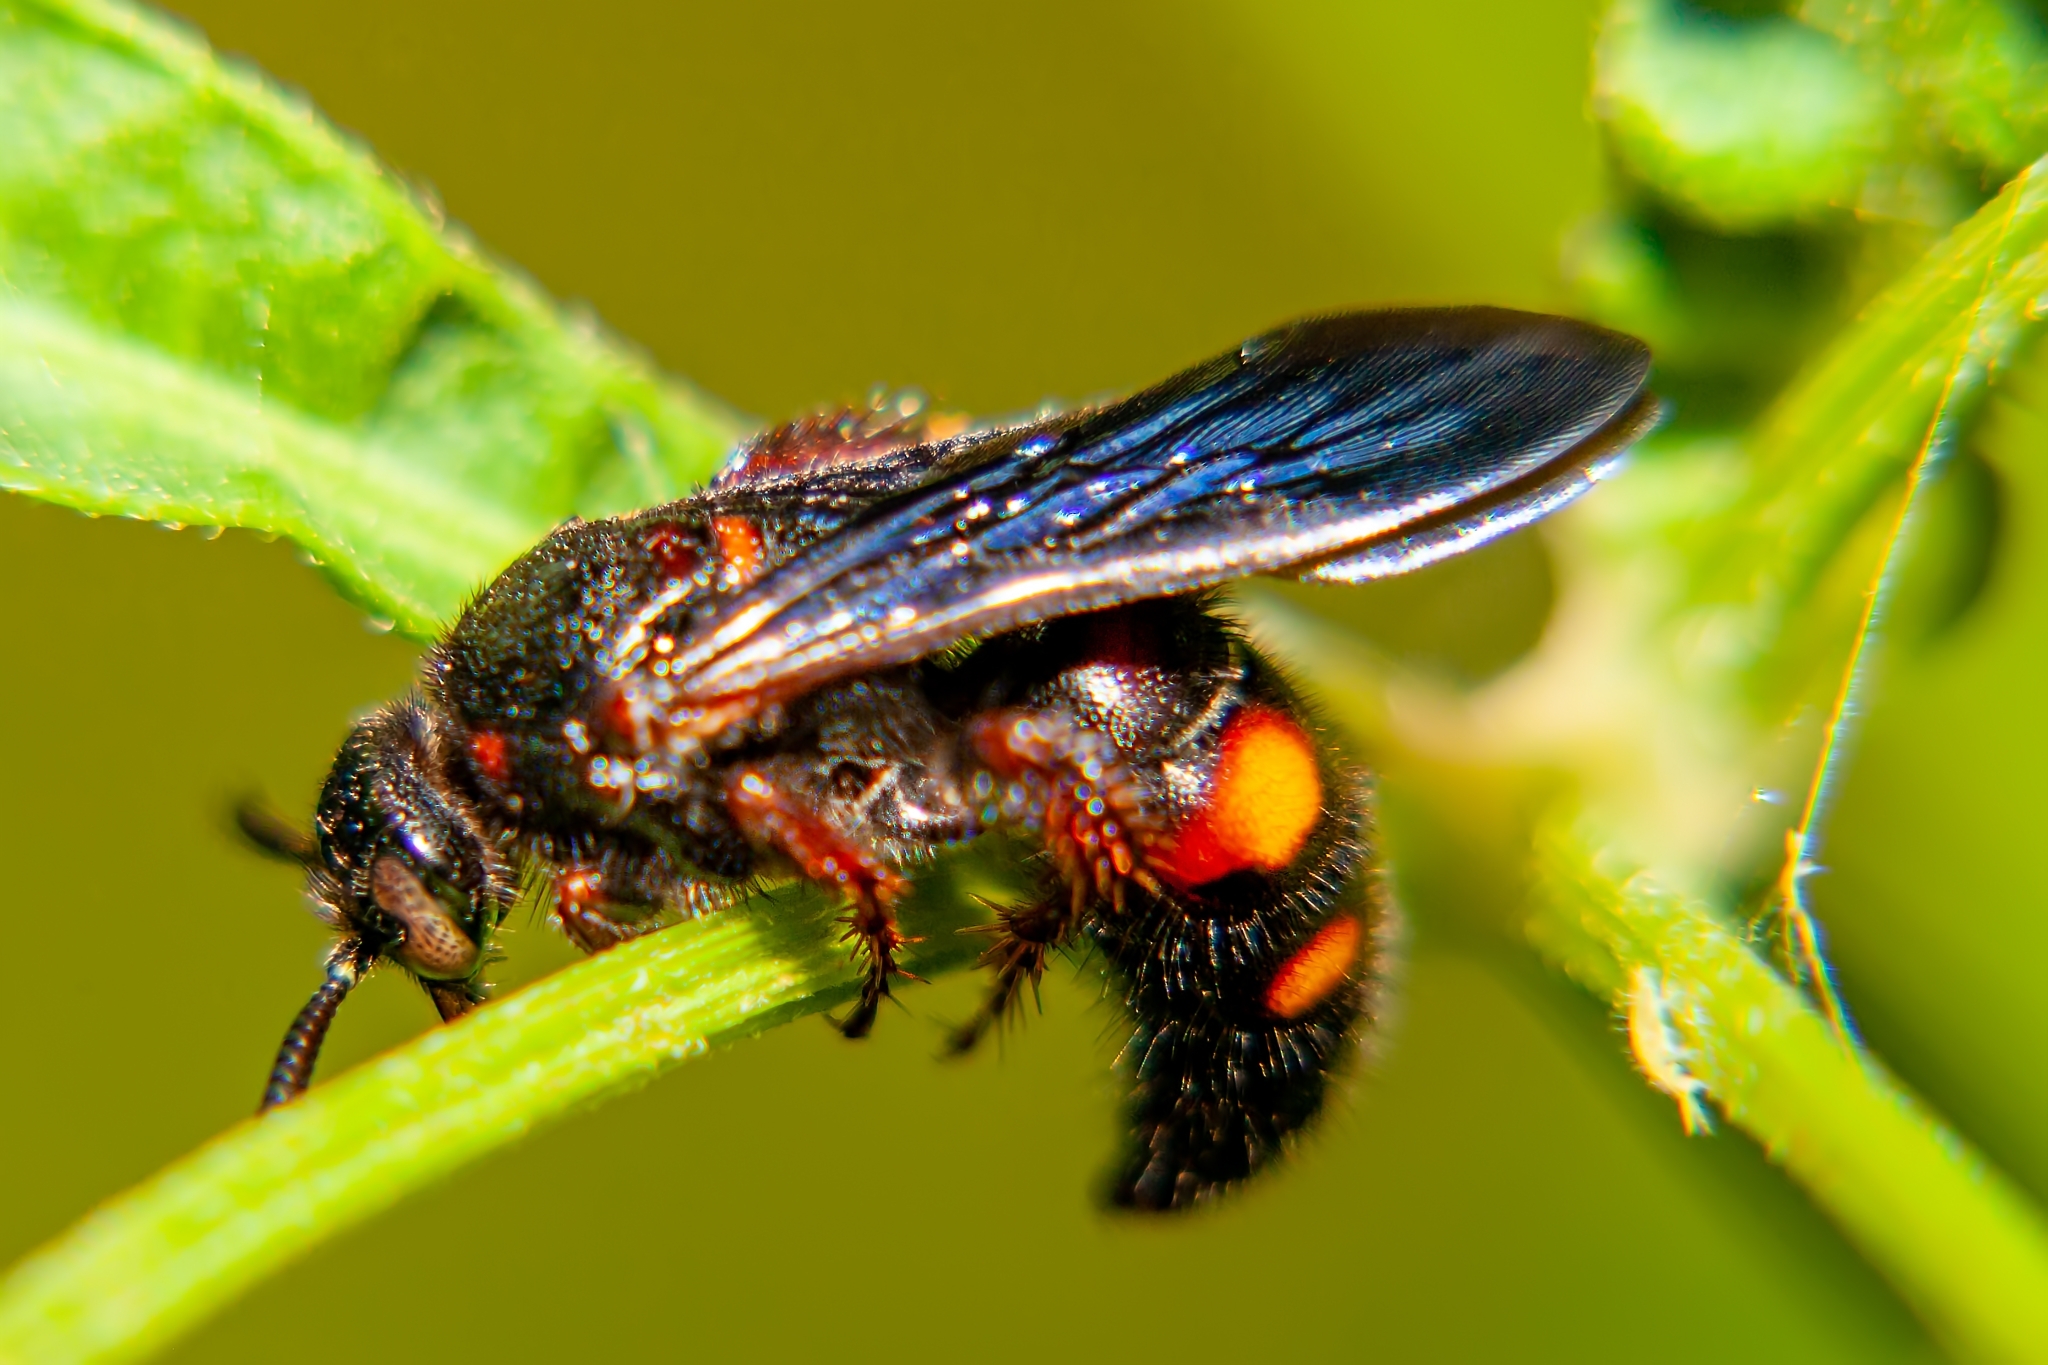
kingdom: Animalia
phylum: Arthropoda
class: Insecta
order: Hymenoptera
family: Scoliidae
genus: Scolia
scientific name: Scolia nobilitata
